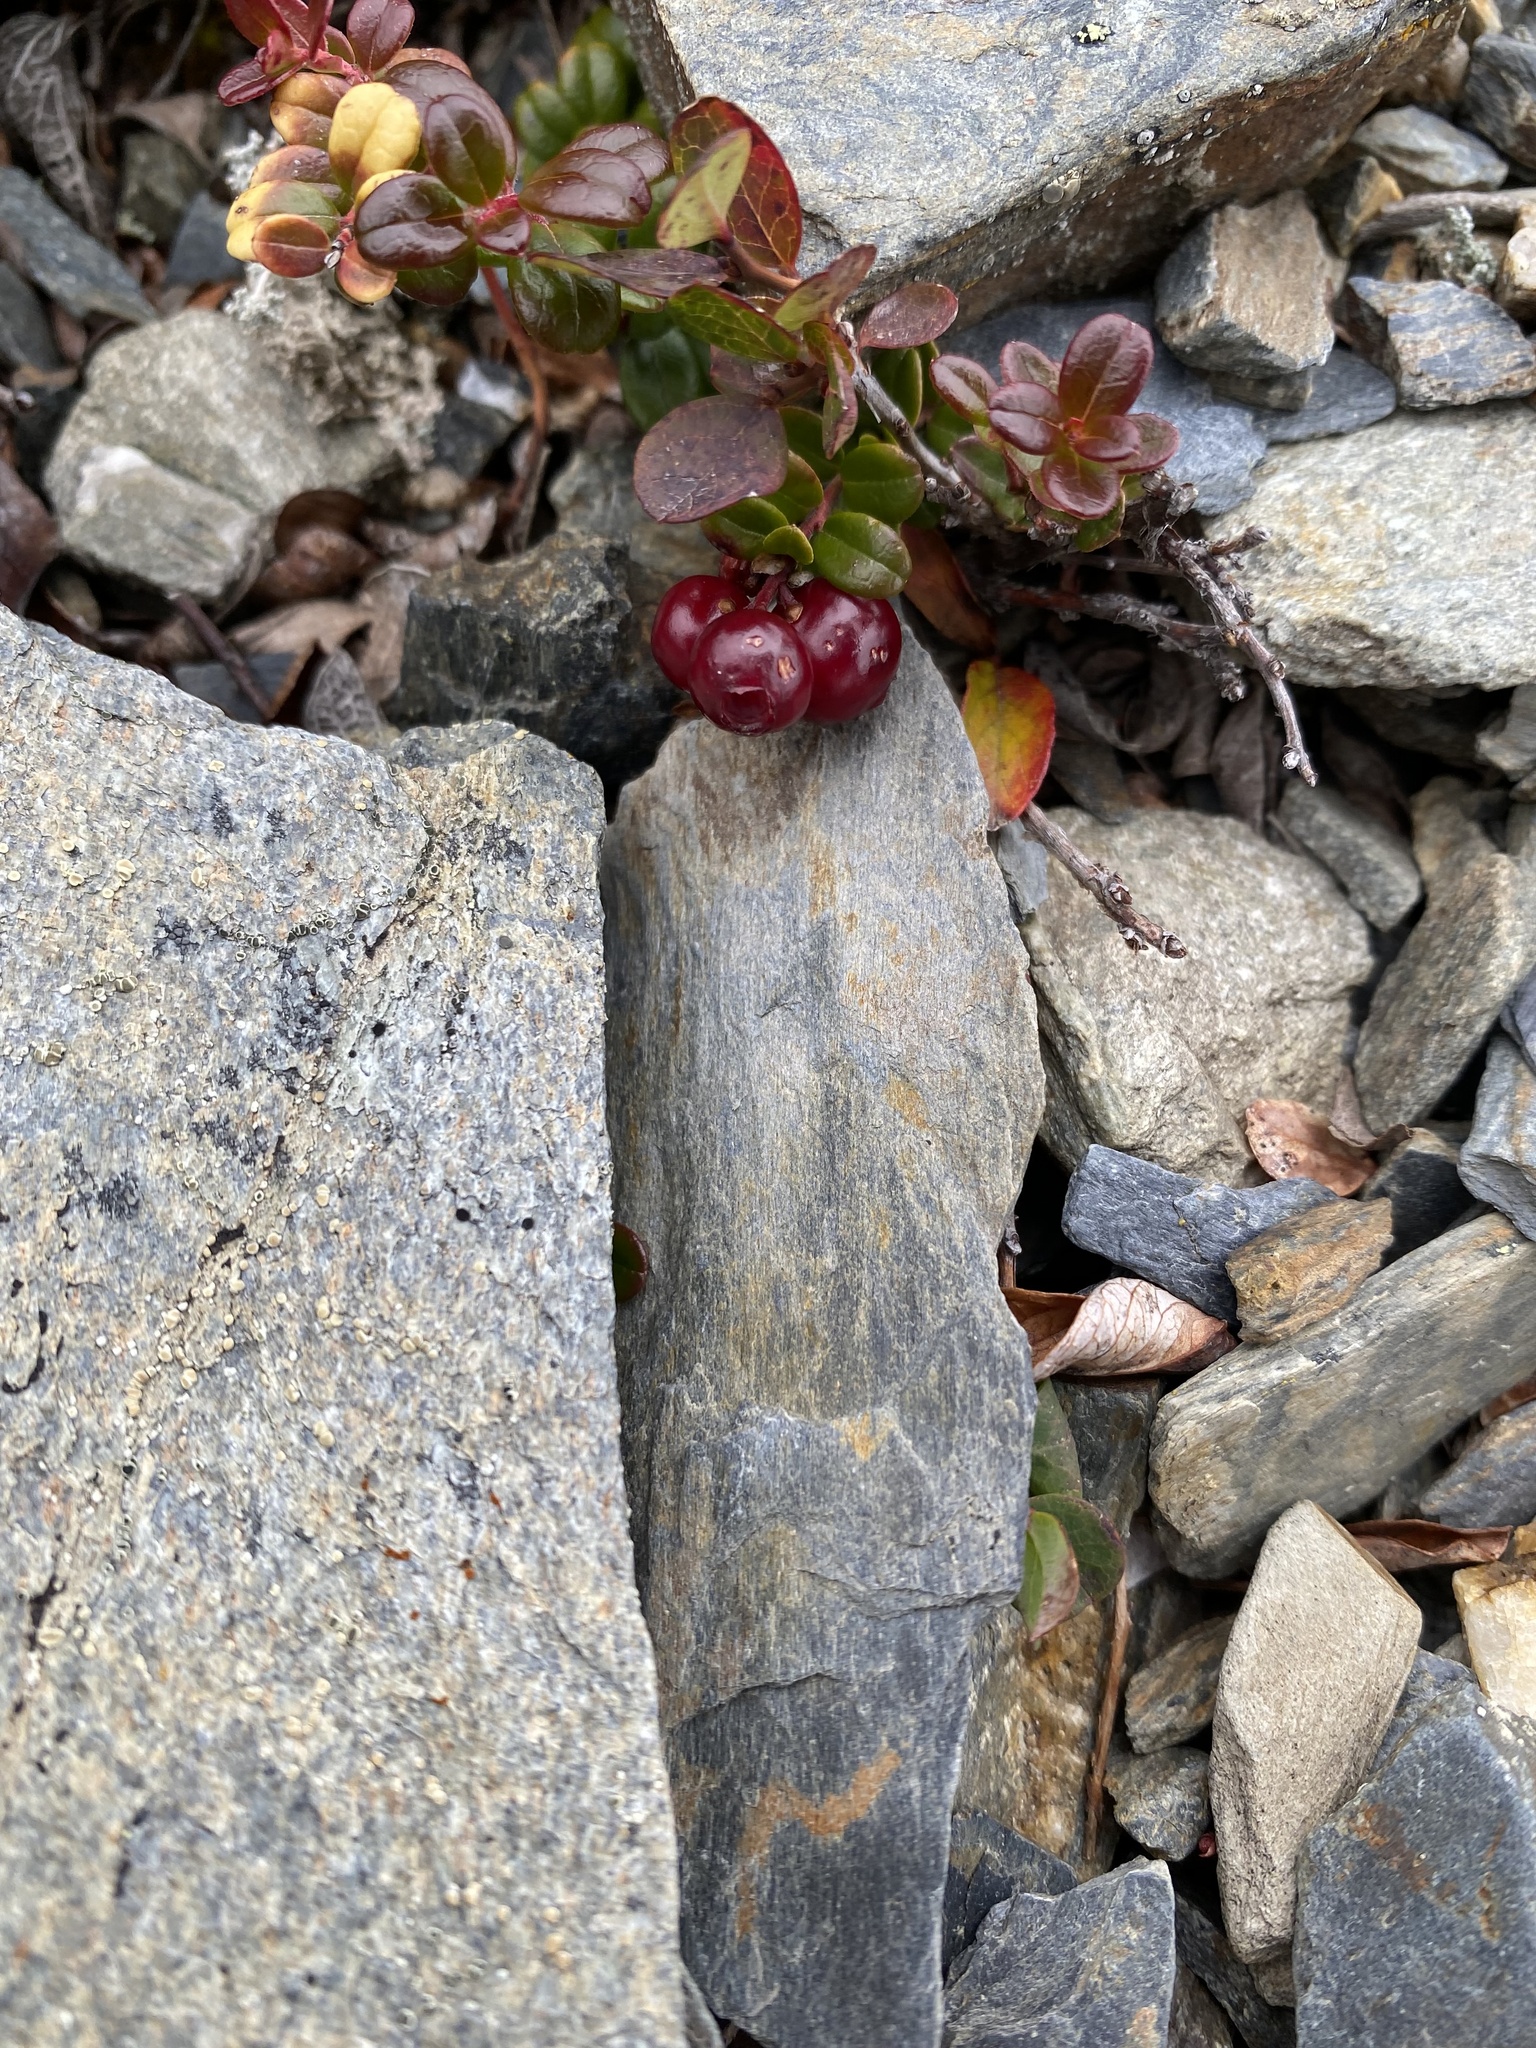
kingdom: Plantae
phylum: Tracheophyta
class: Magnoliopsida
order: Ericales
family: Ericaceae
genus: Vaccinium
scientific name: Vaccinium vitis-idaea
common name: Cowberry
